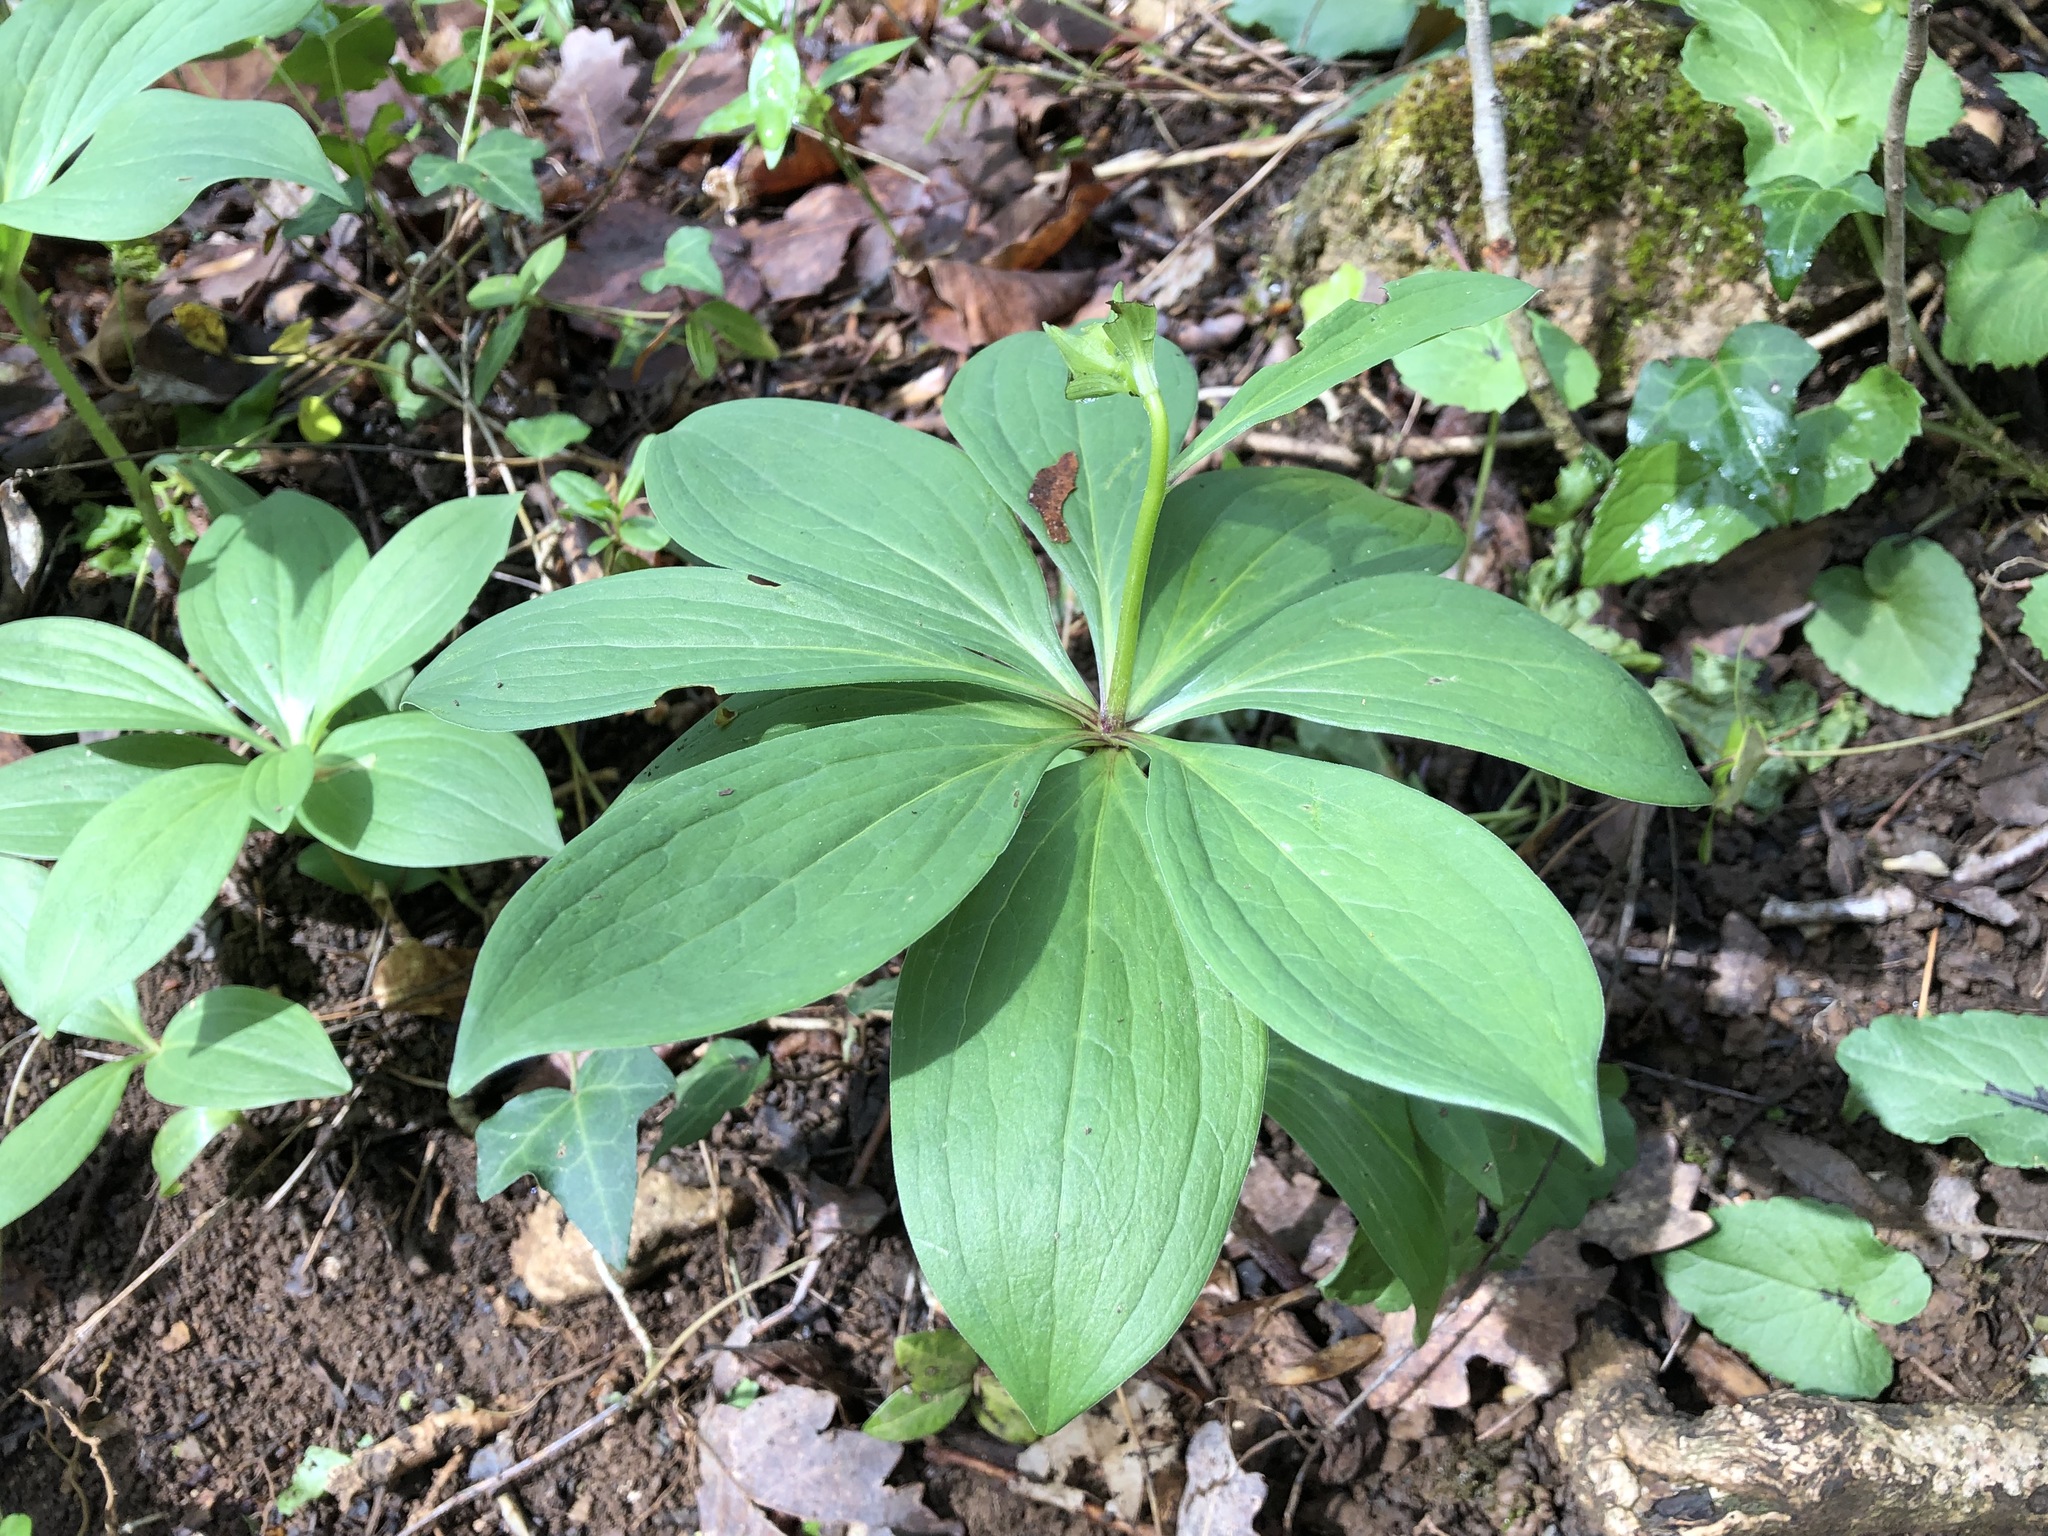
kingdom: Plantae
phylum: Tracheophyta
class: Liliopsida
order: Liliales
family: Liliaceae
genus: Lilium
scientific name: Lilium martagon
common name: Martagon lily
